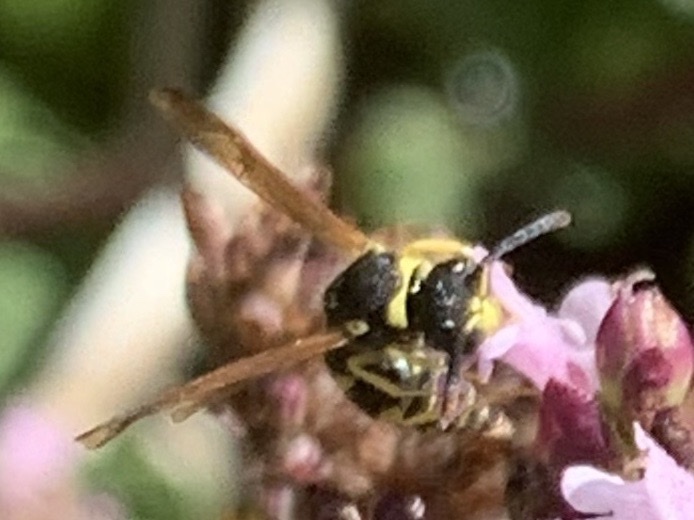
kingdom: Animalia
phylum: Arthropoda
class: Insecta
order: Hymenoptera
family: Vespidae
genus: Ancistrocerus
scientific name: Ancistrocerus
